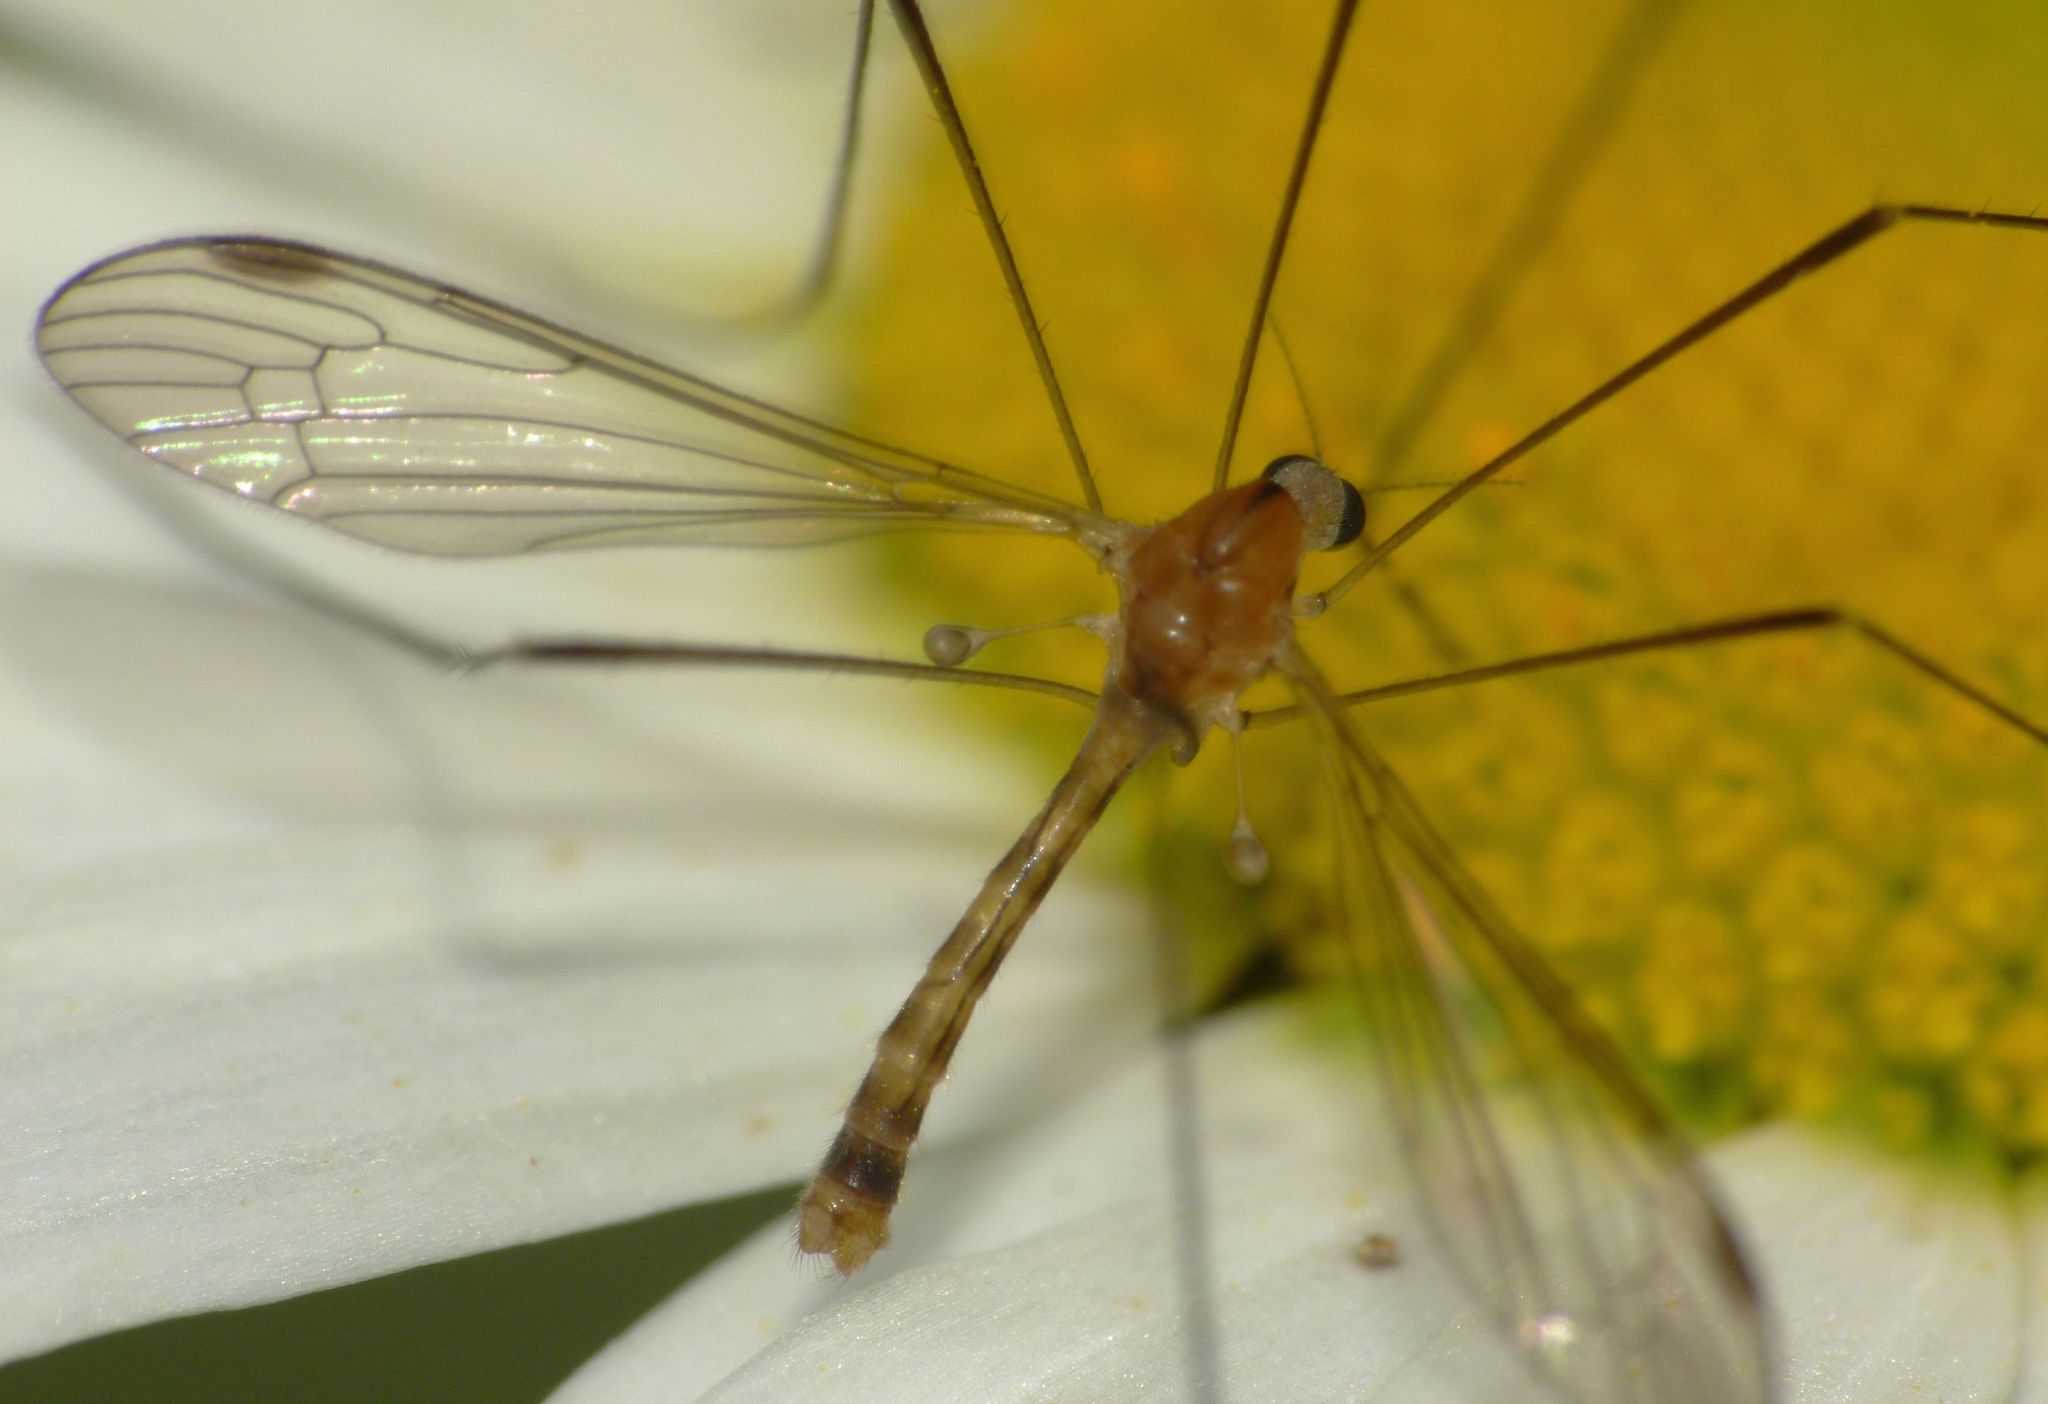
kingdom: Animalia
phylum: Arthropoda
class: Insecta
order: Diptera
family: Limoniidae
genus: Elephantomyia
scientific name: Elephantomyia zealandica
